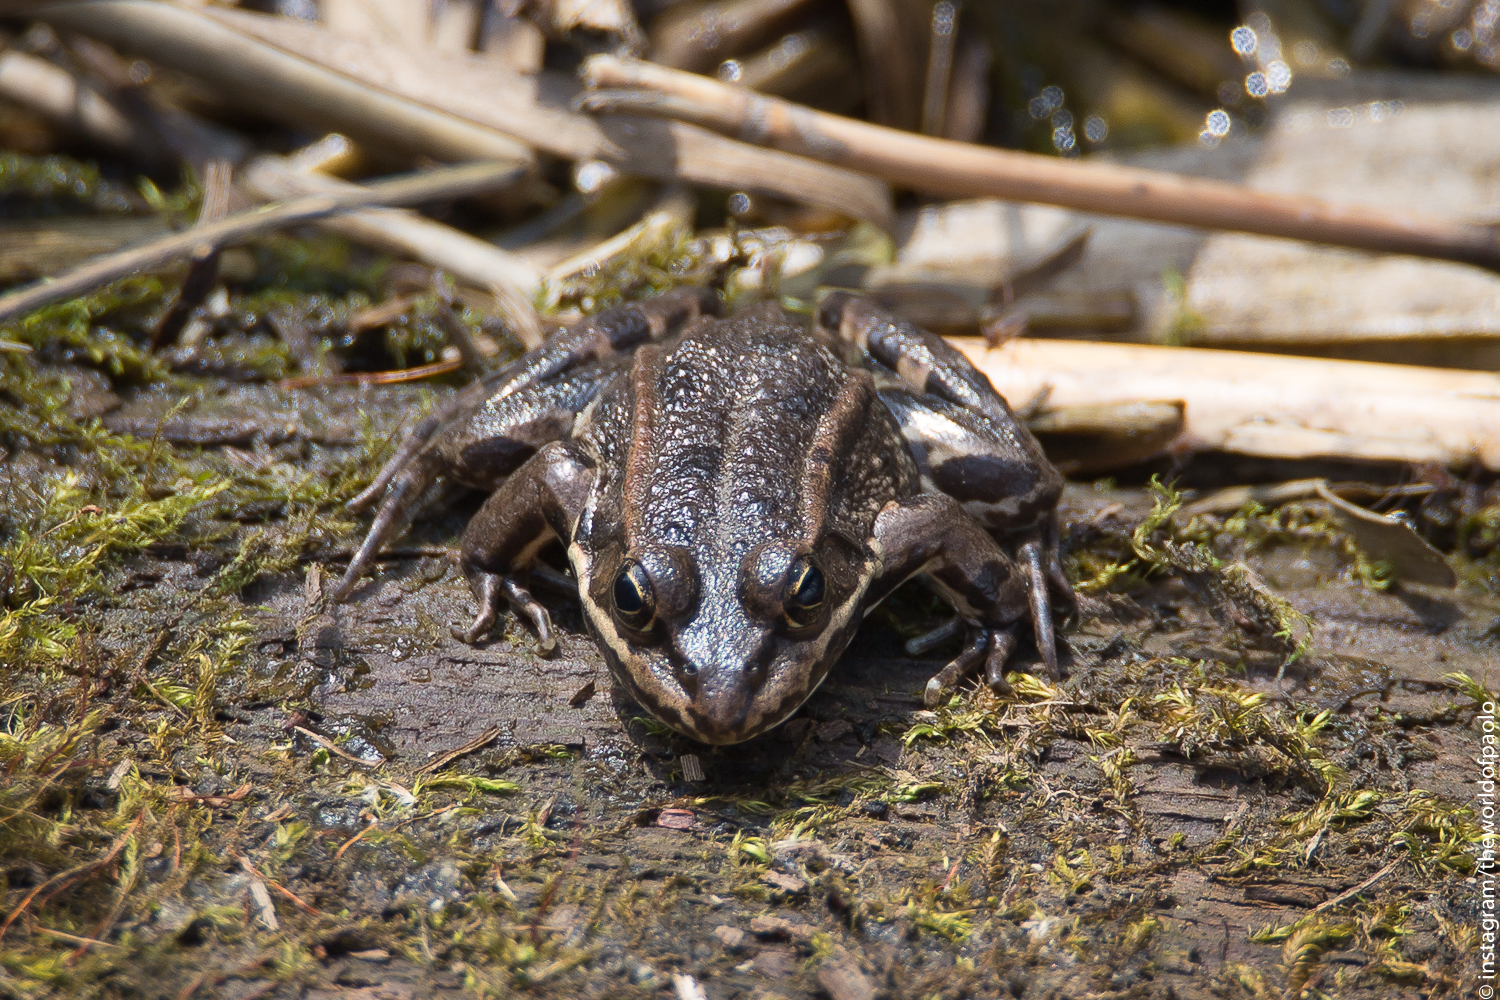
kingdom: Animalia
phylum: Chordata
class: Amphibia
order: Anura
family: Ranidae
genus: Pelophylax
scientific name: Pelophylax
